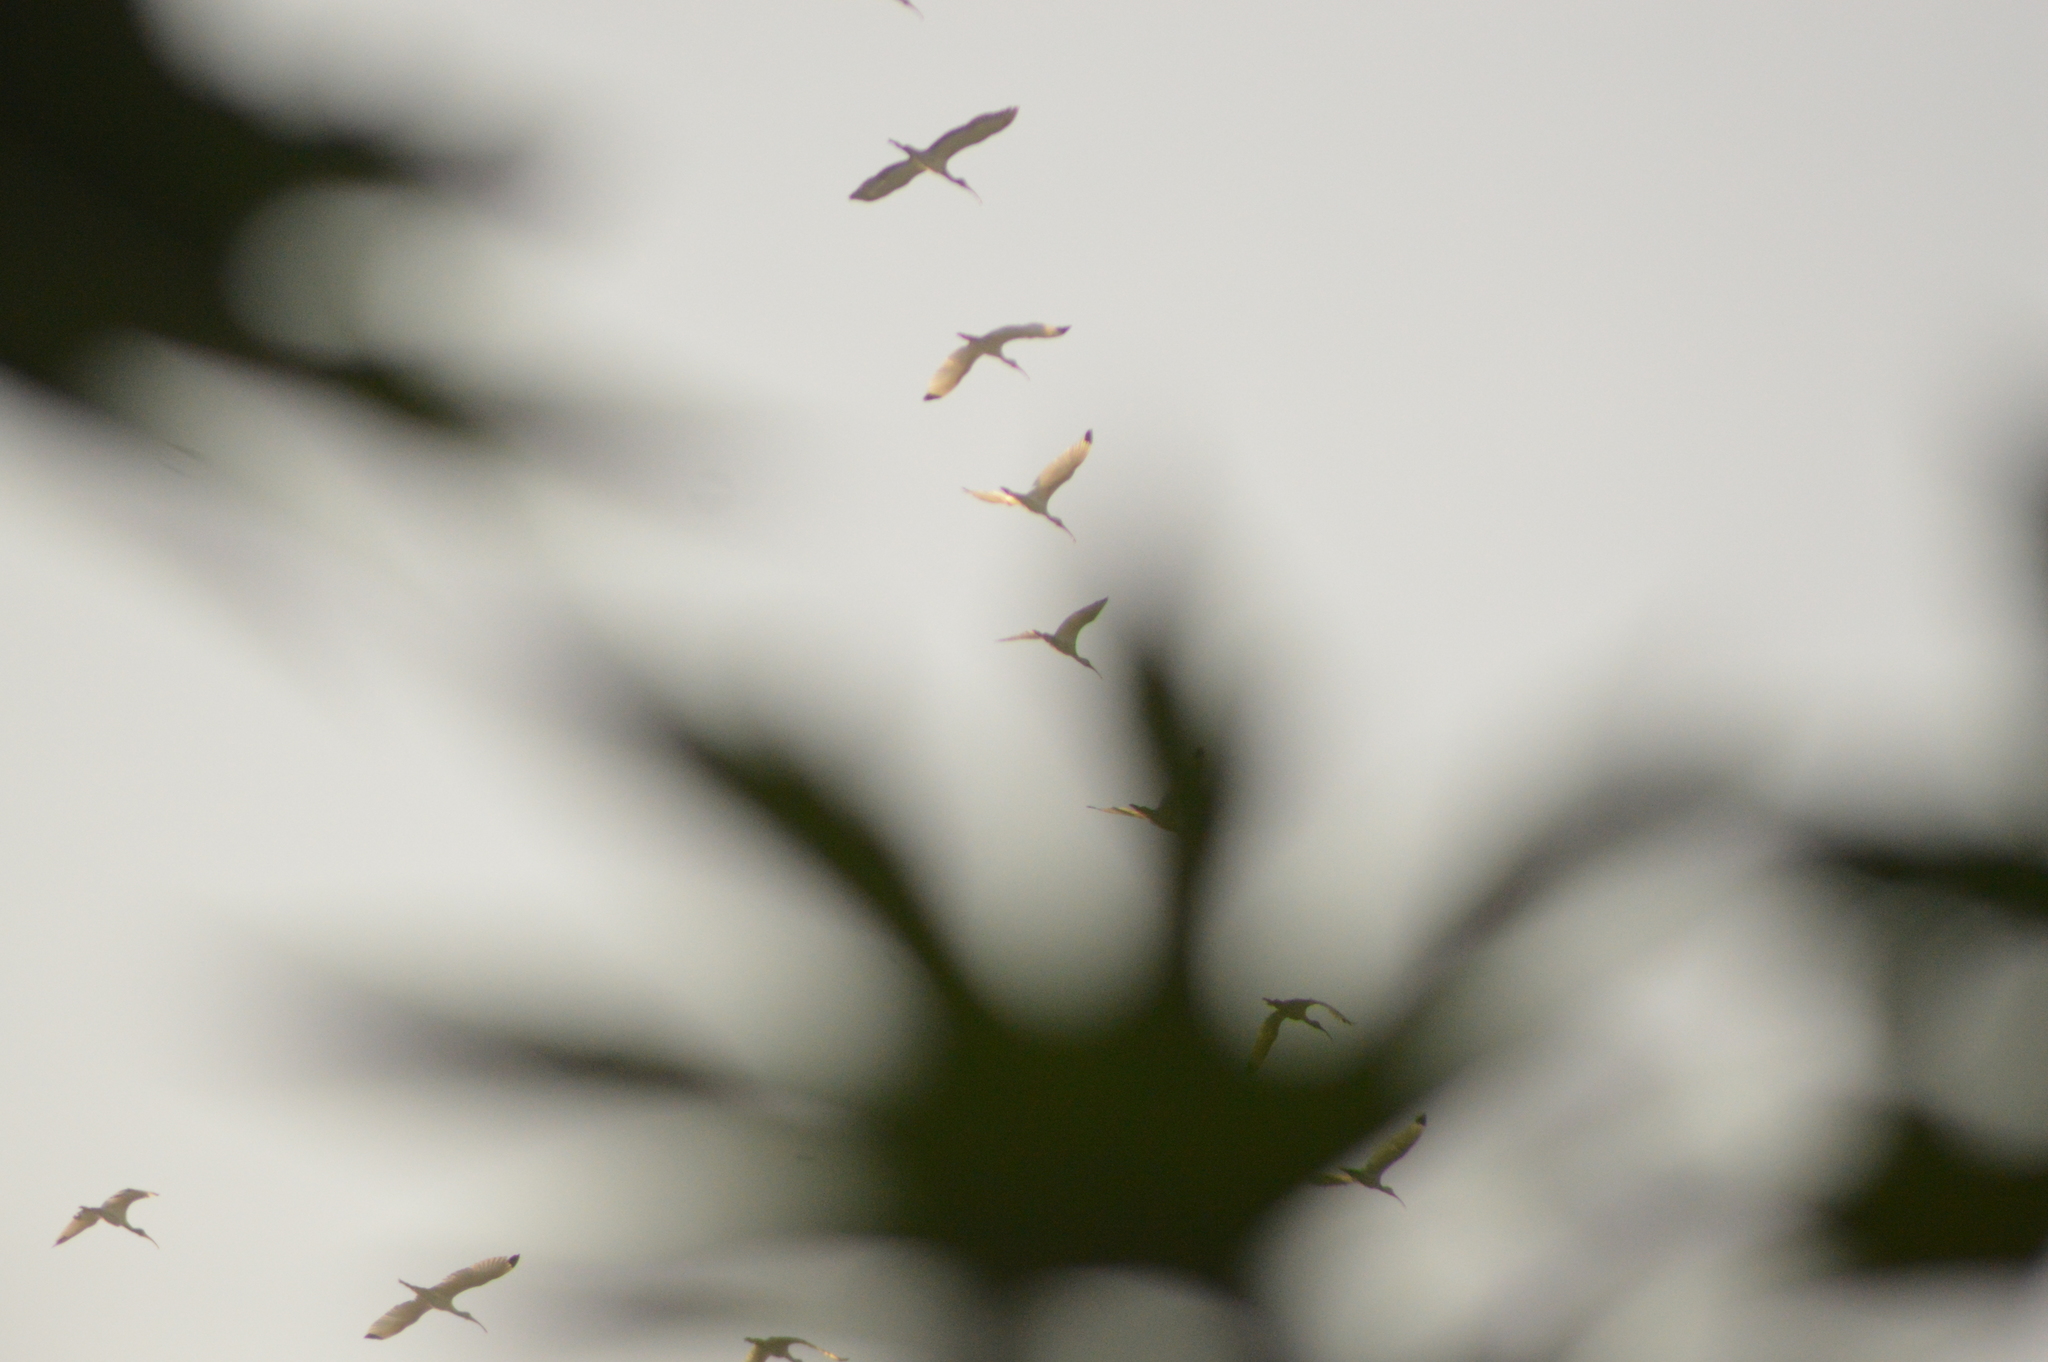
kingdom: Animalia
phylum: Chordata
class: Aves
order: Pelecaniformes
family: Threskiornithidae
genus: Eudocimus
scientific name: Eudocimus albus
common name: White ibis
